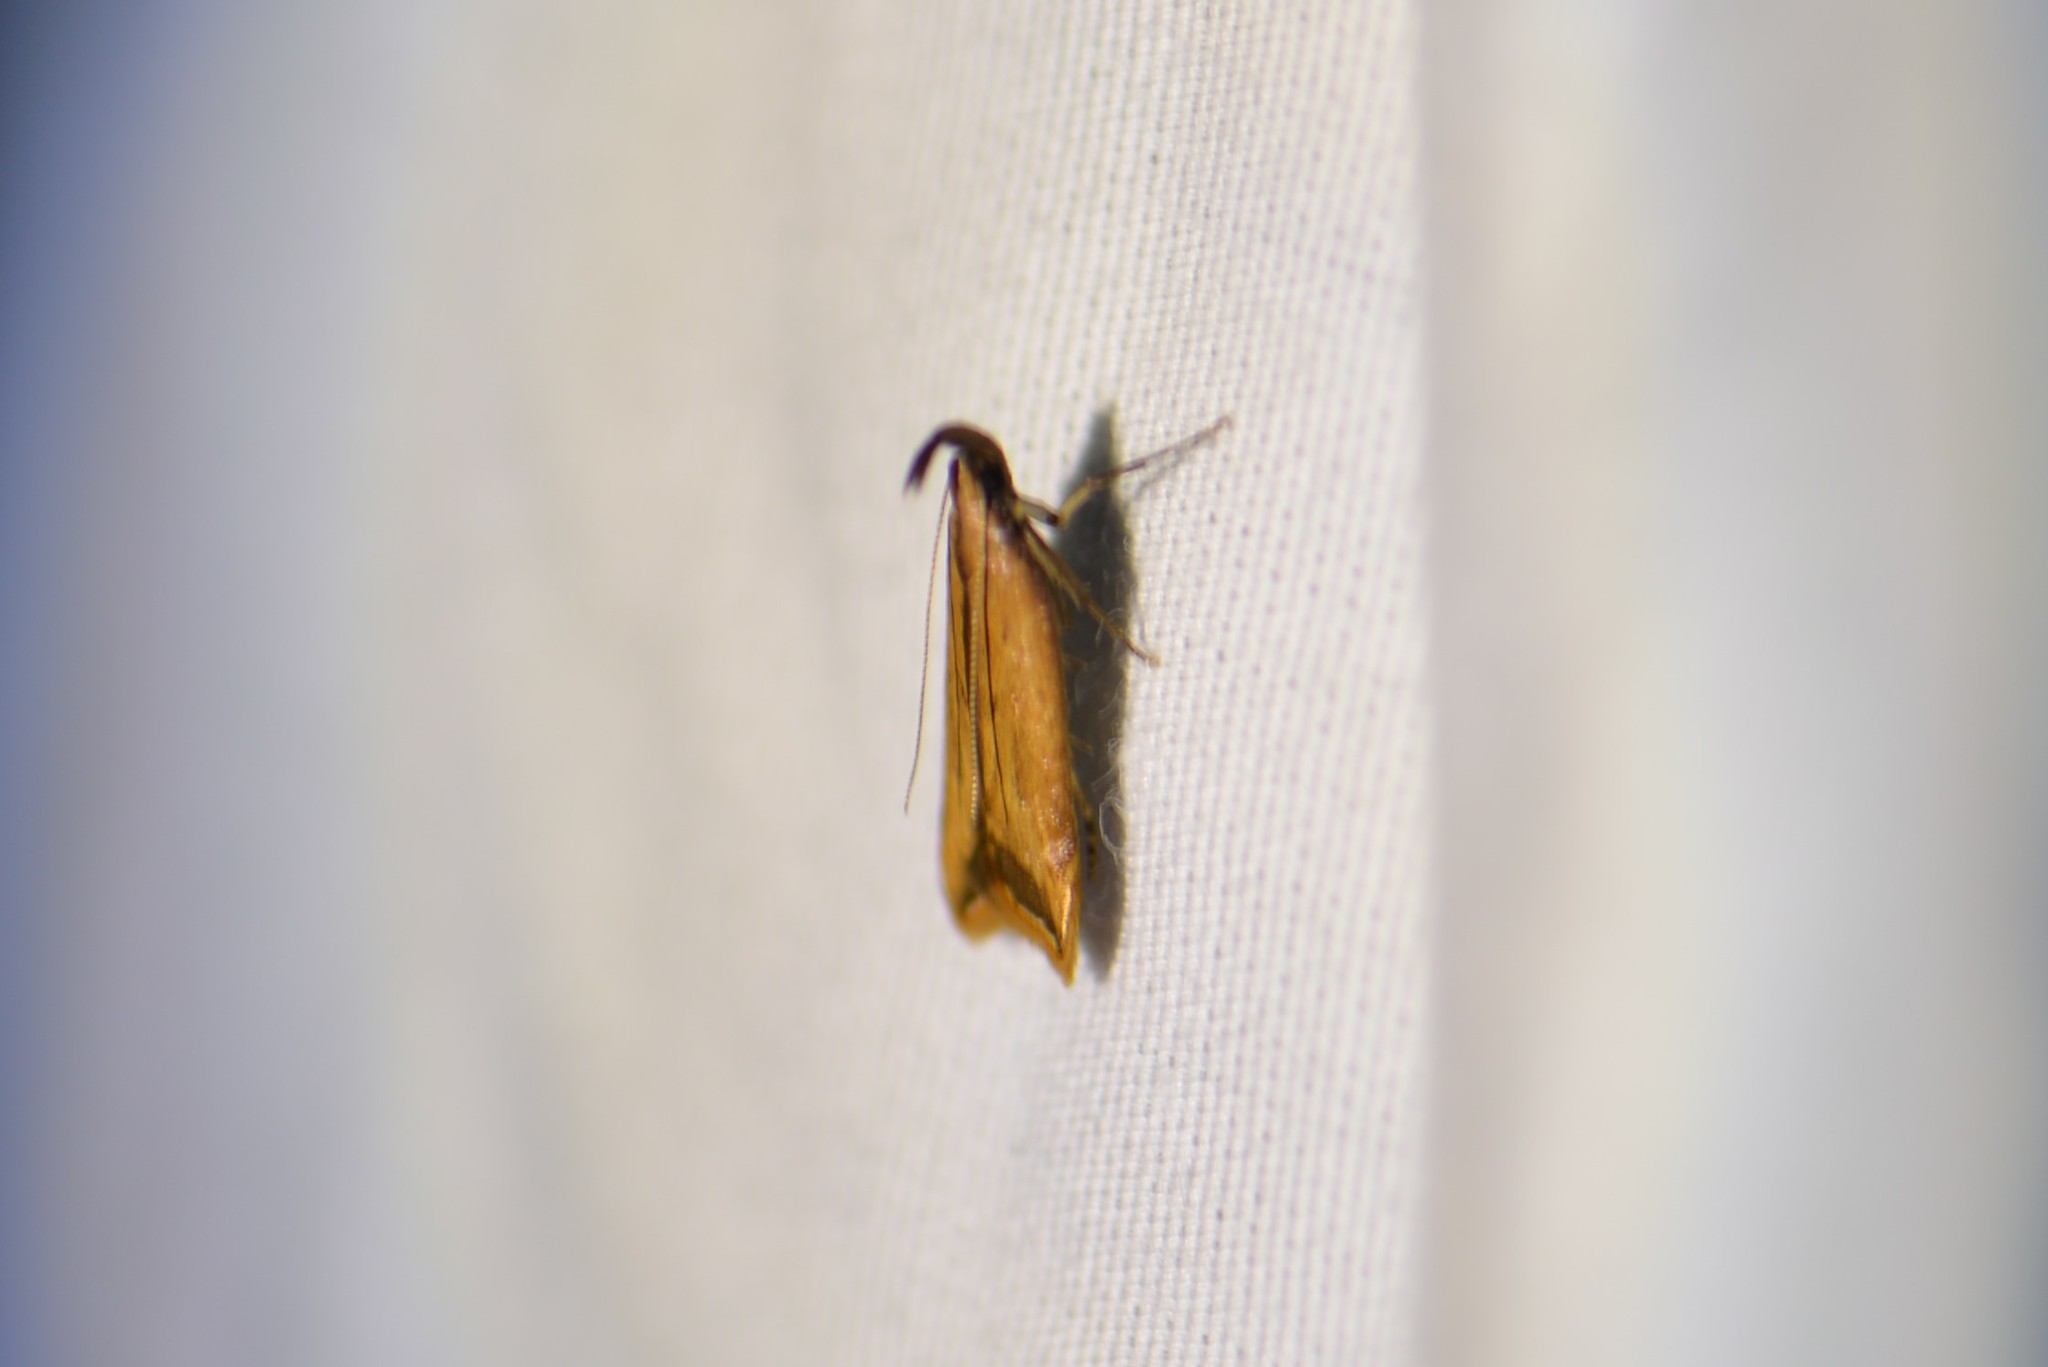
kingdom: Animalia
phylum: Arthropoda
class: Insecta
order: Lepidoptera
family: Gelechiidae
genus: Dichomeris
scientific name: Dichomeris heriguronis
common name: Black-edged dichomeris moth
